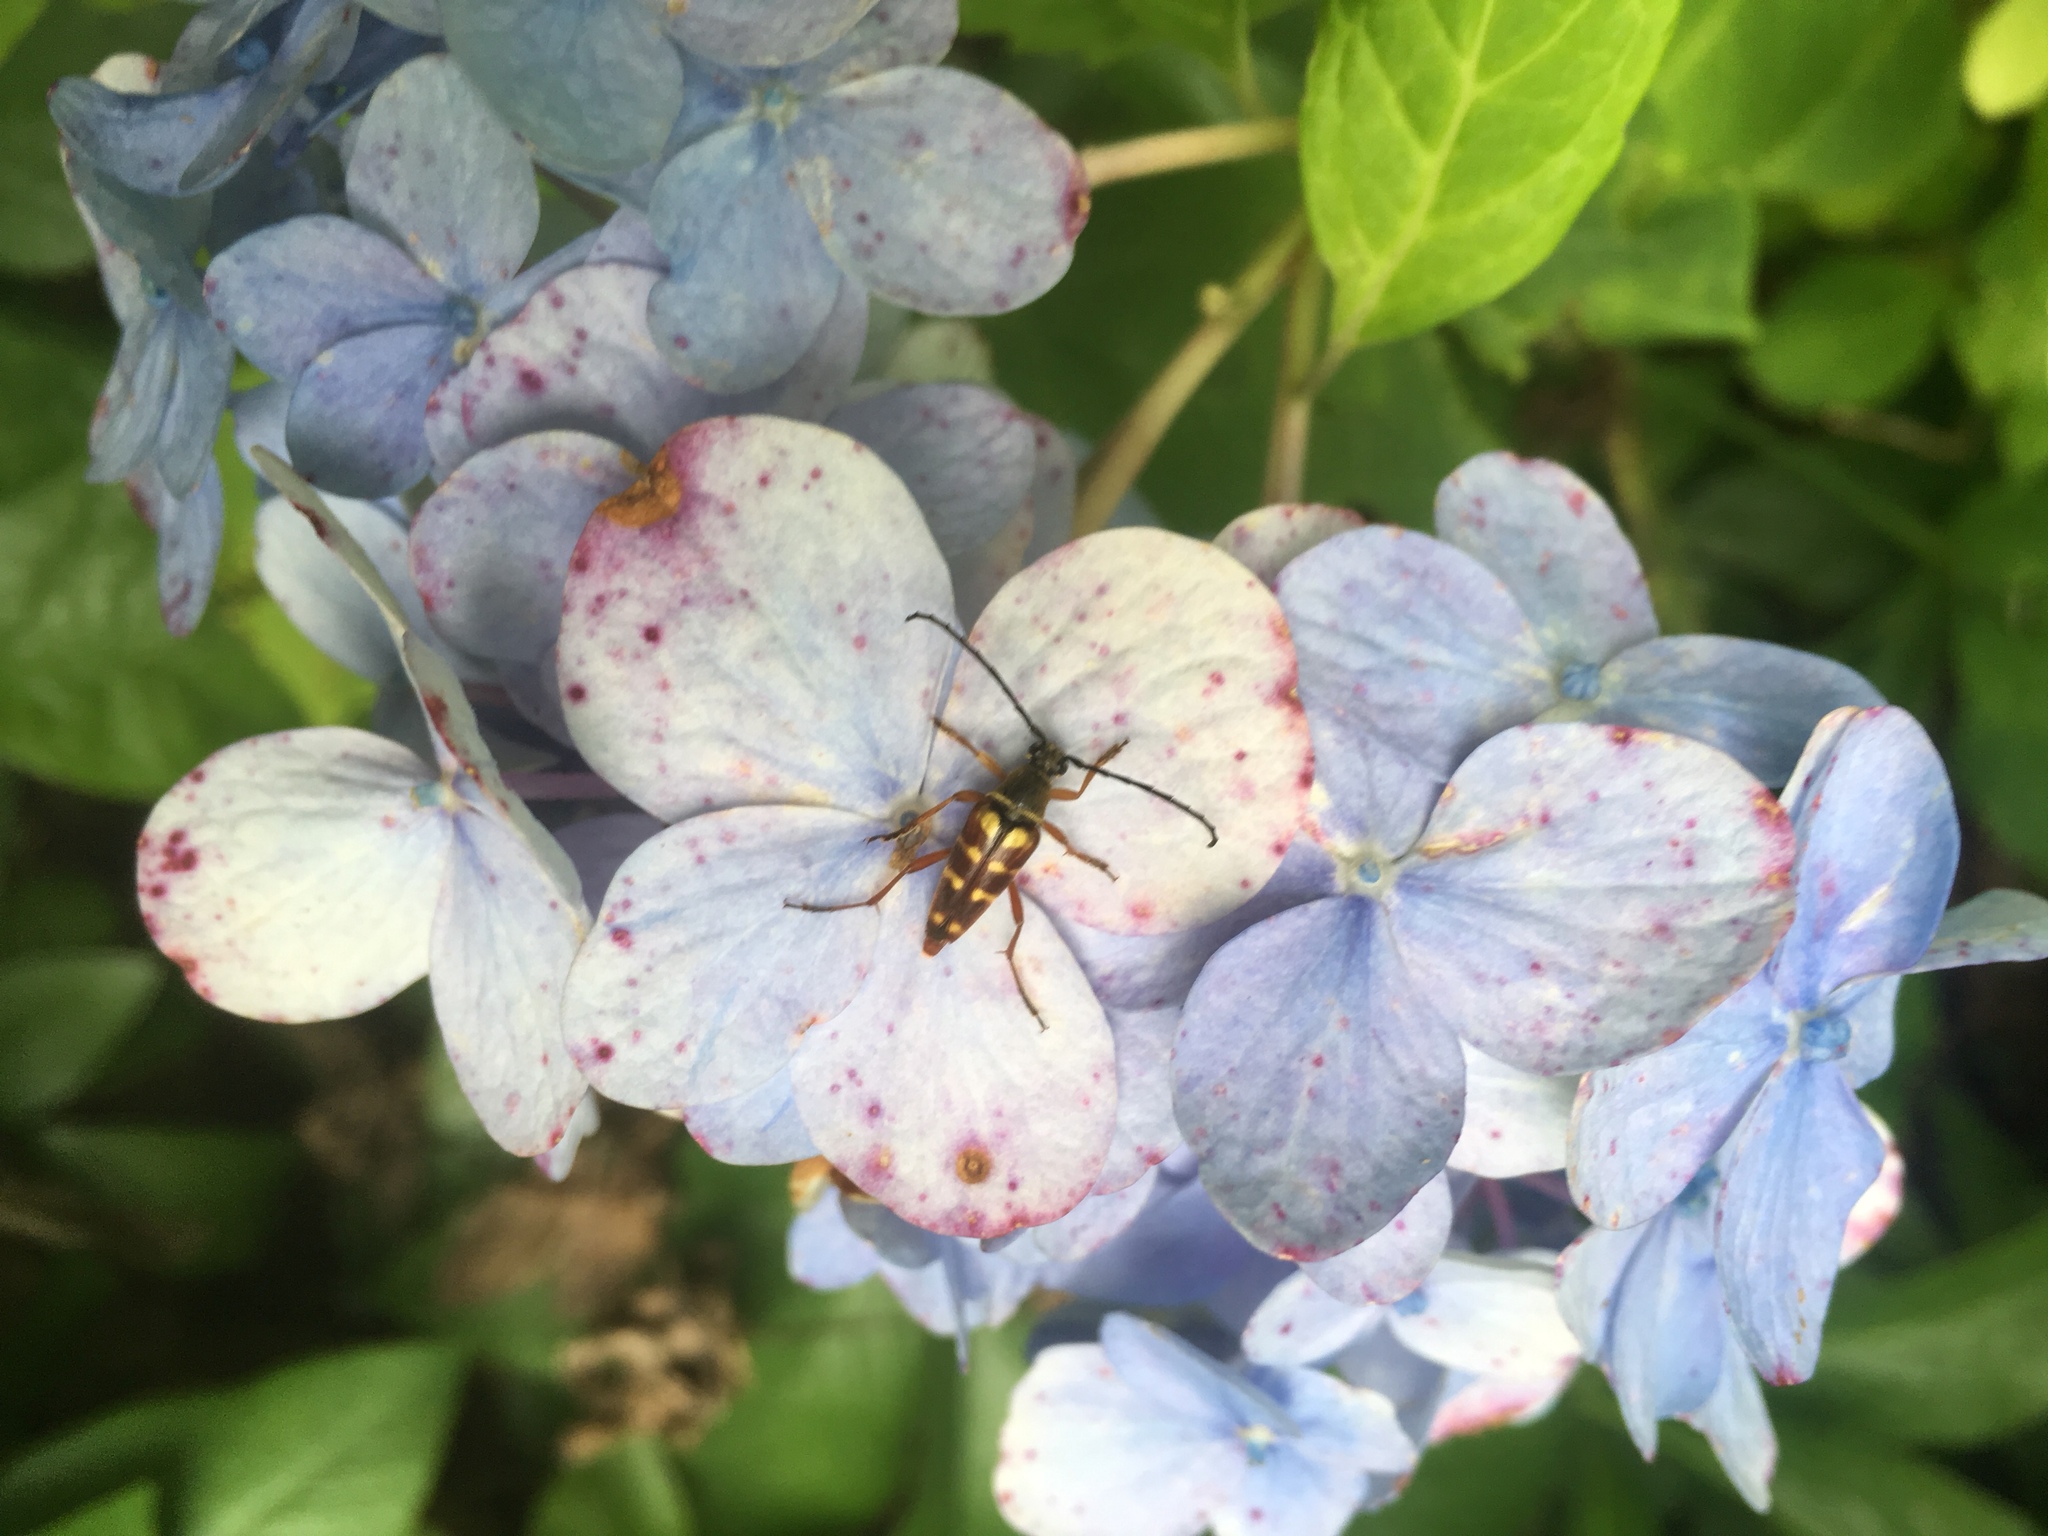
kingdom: Animalia
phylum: Arthropoda
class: Insecta
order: Coleoptera
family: Cerambycidae
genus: Typocerus
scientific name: Typocerus velutinus
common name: Banded longhorn beetle
